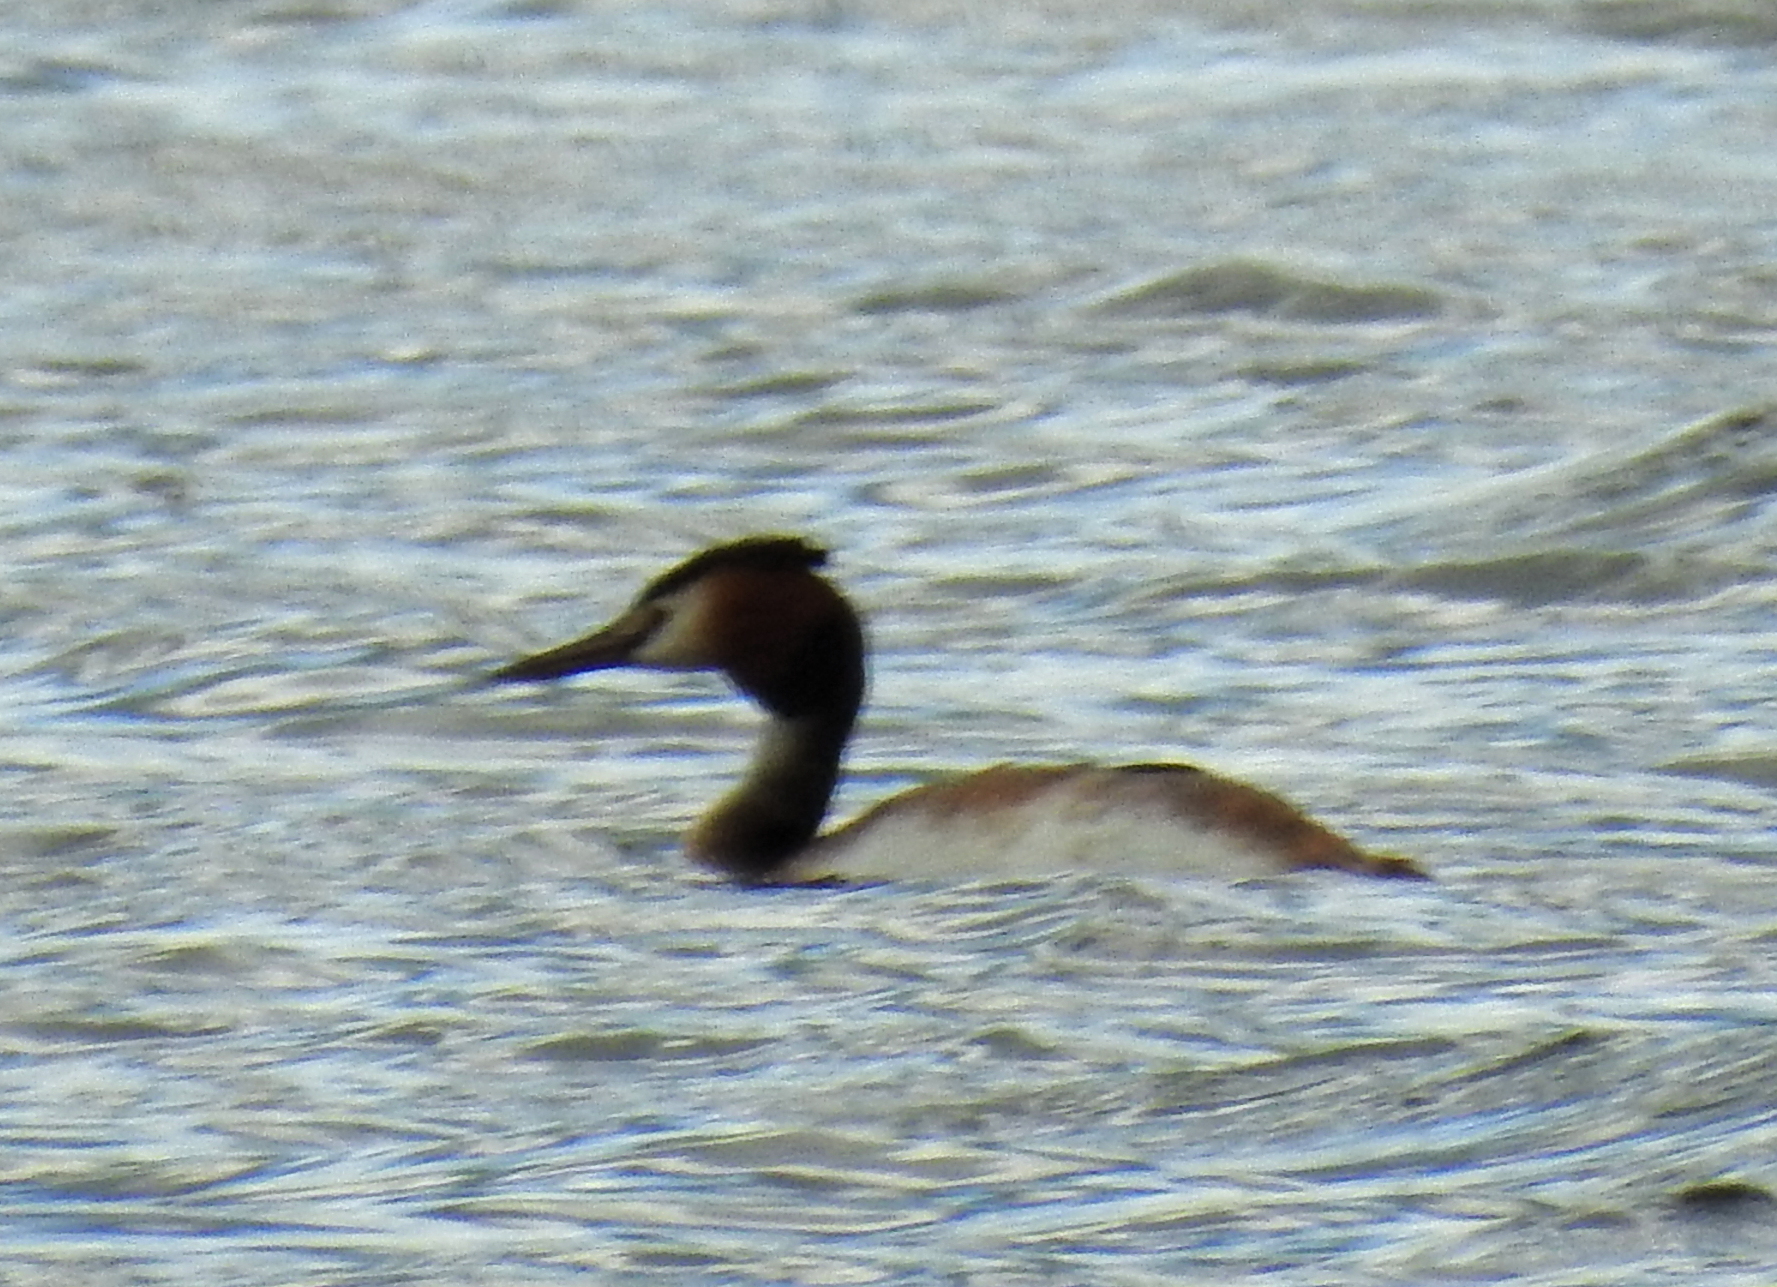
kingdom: Animalia
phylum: Chordata
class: Aves
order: Podicipediformes
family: Podicipedidae
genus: Podiceps
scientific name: Podiceps cristatus
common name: Great crested grebe
